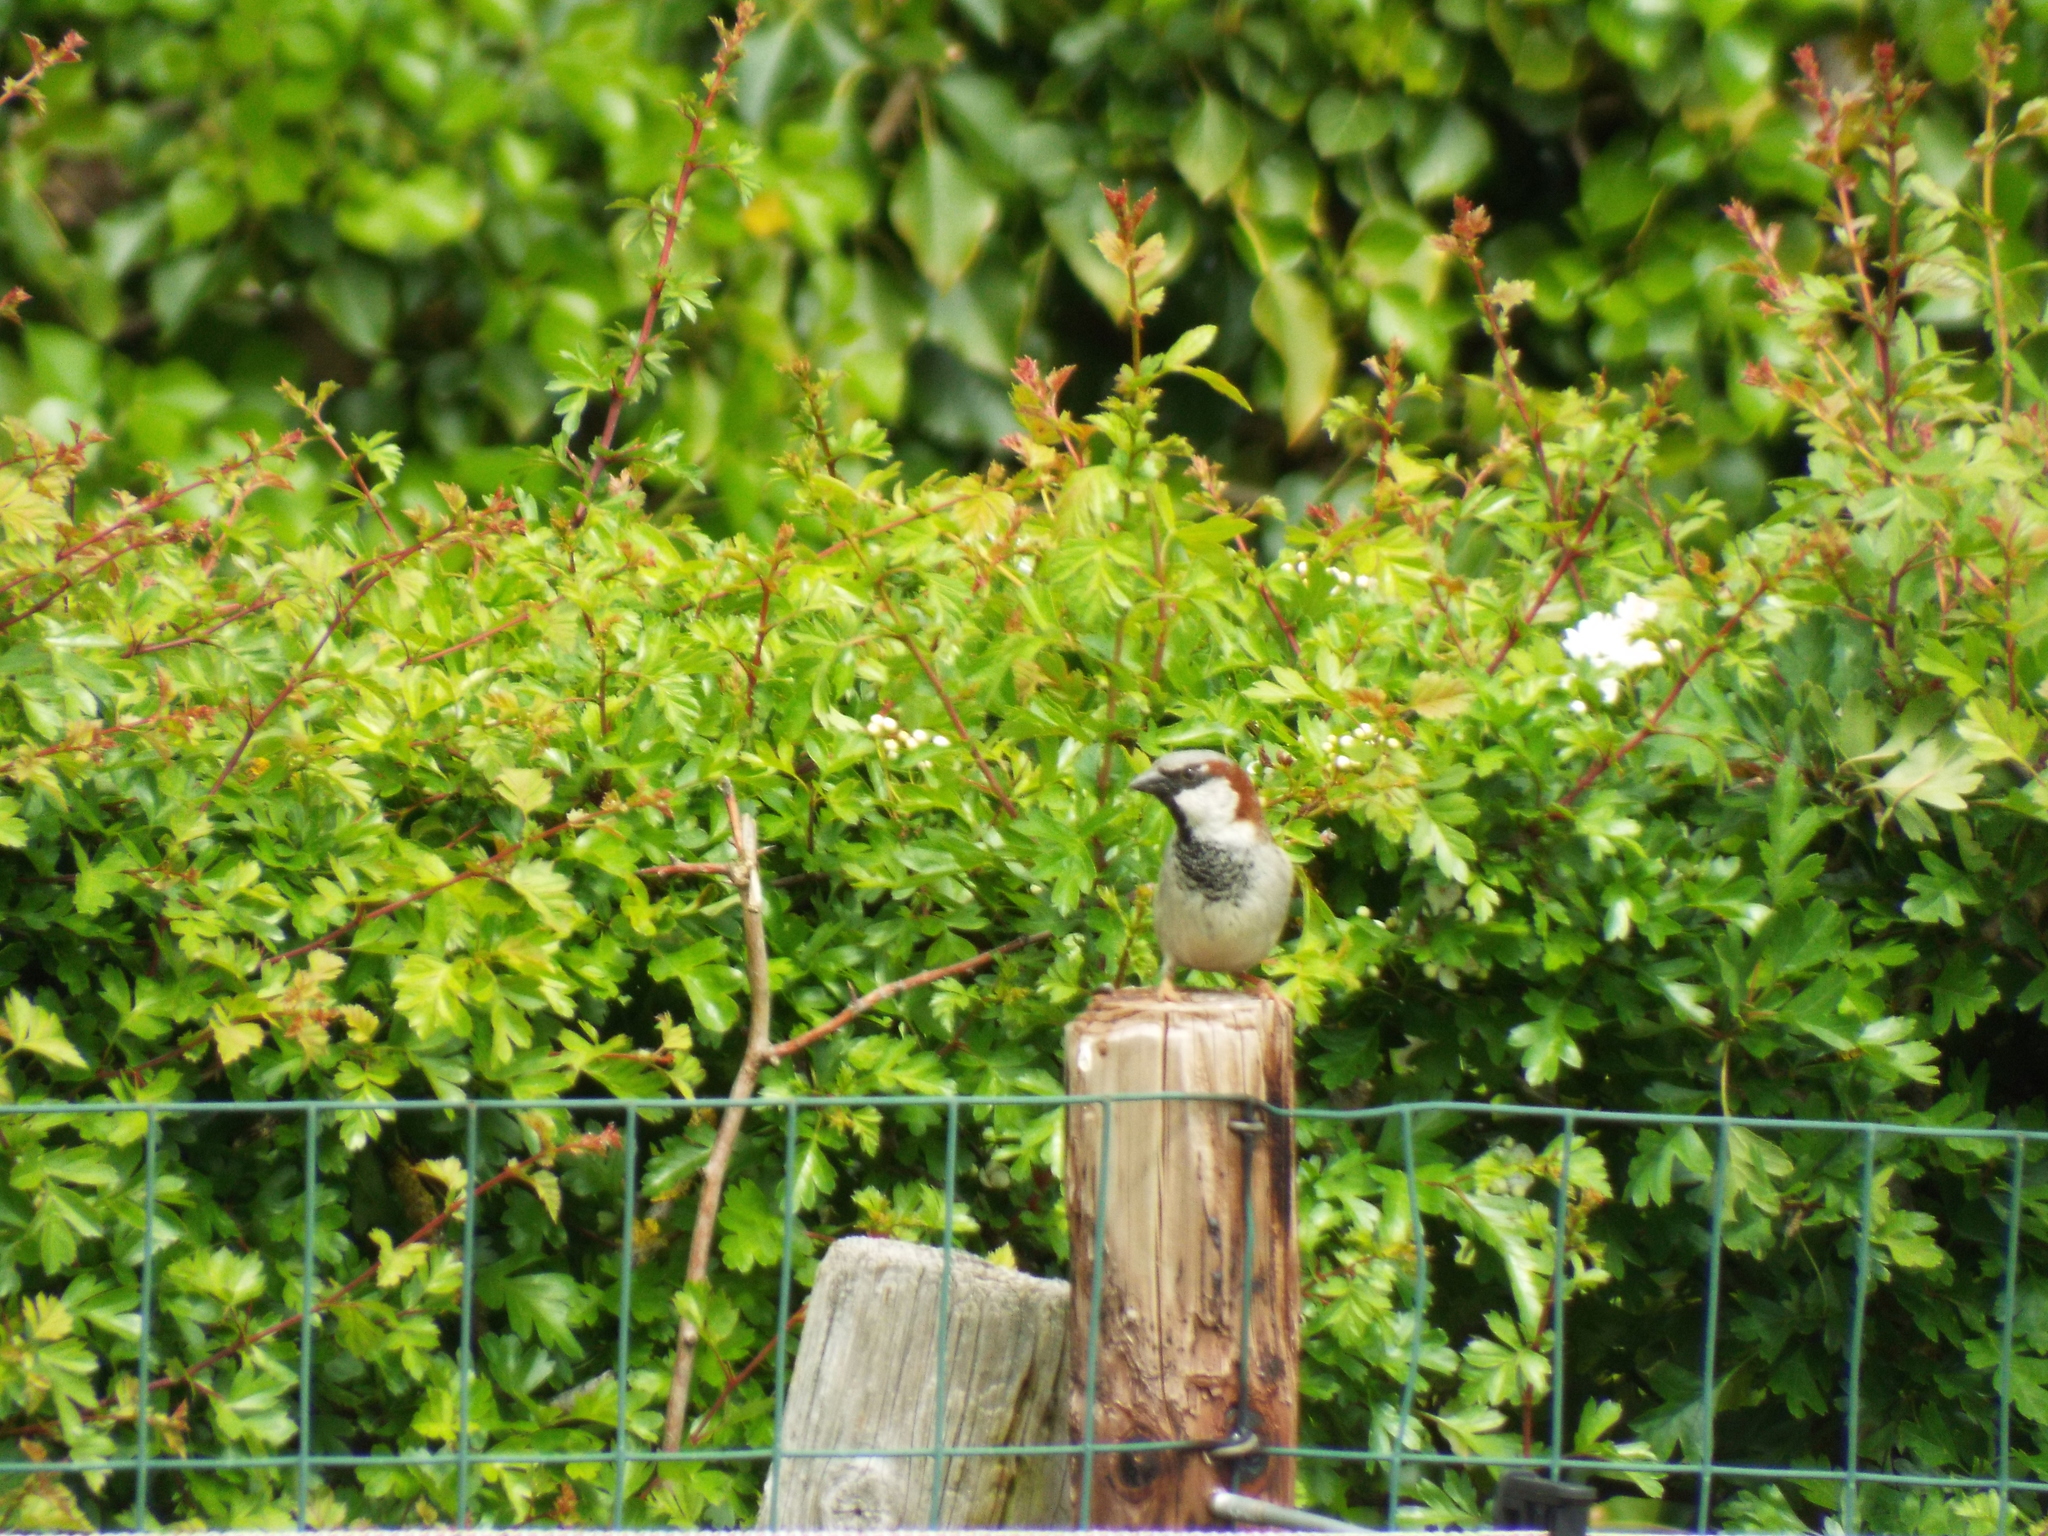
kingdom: Animalia
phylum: Chordata
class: Aves
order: Passeriformes
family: Passeridae
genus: Passer
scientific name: Passer domesticus
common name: House sparrow
